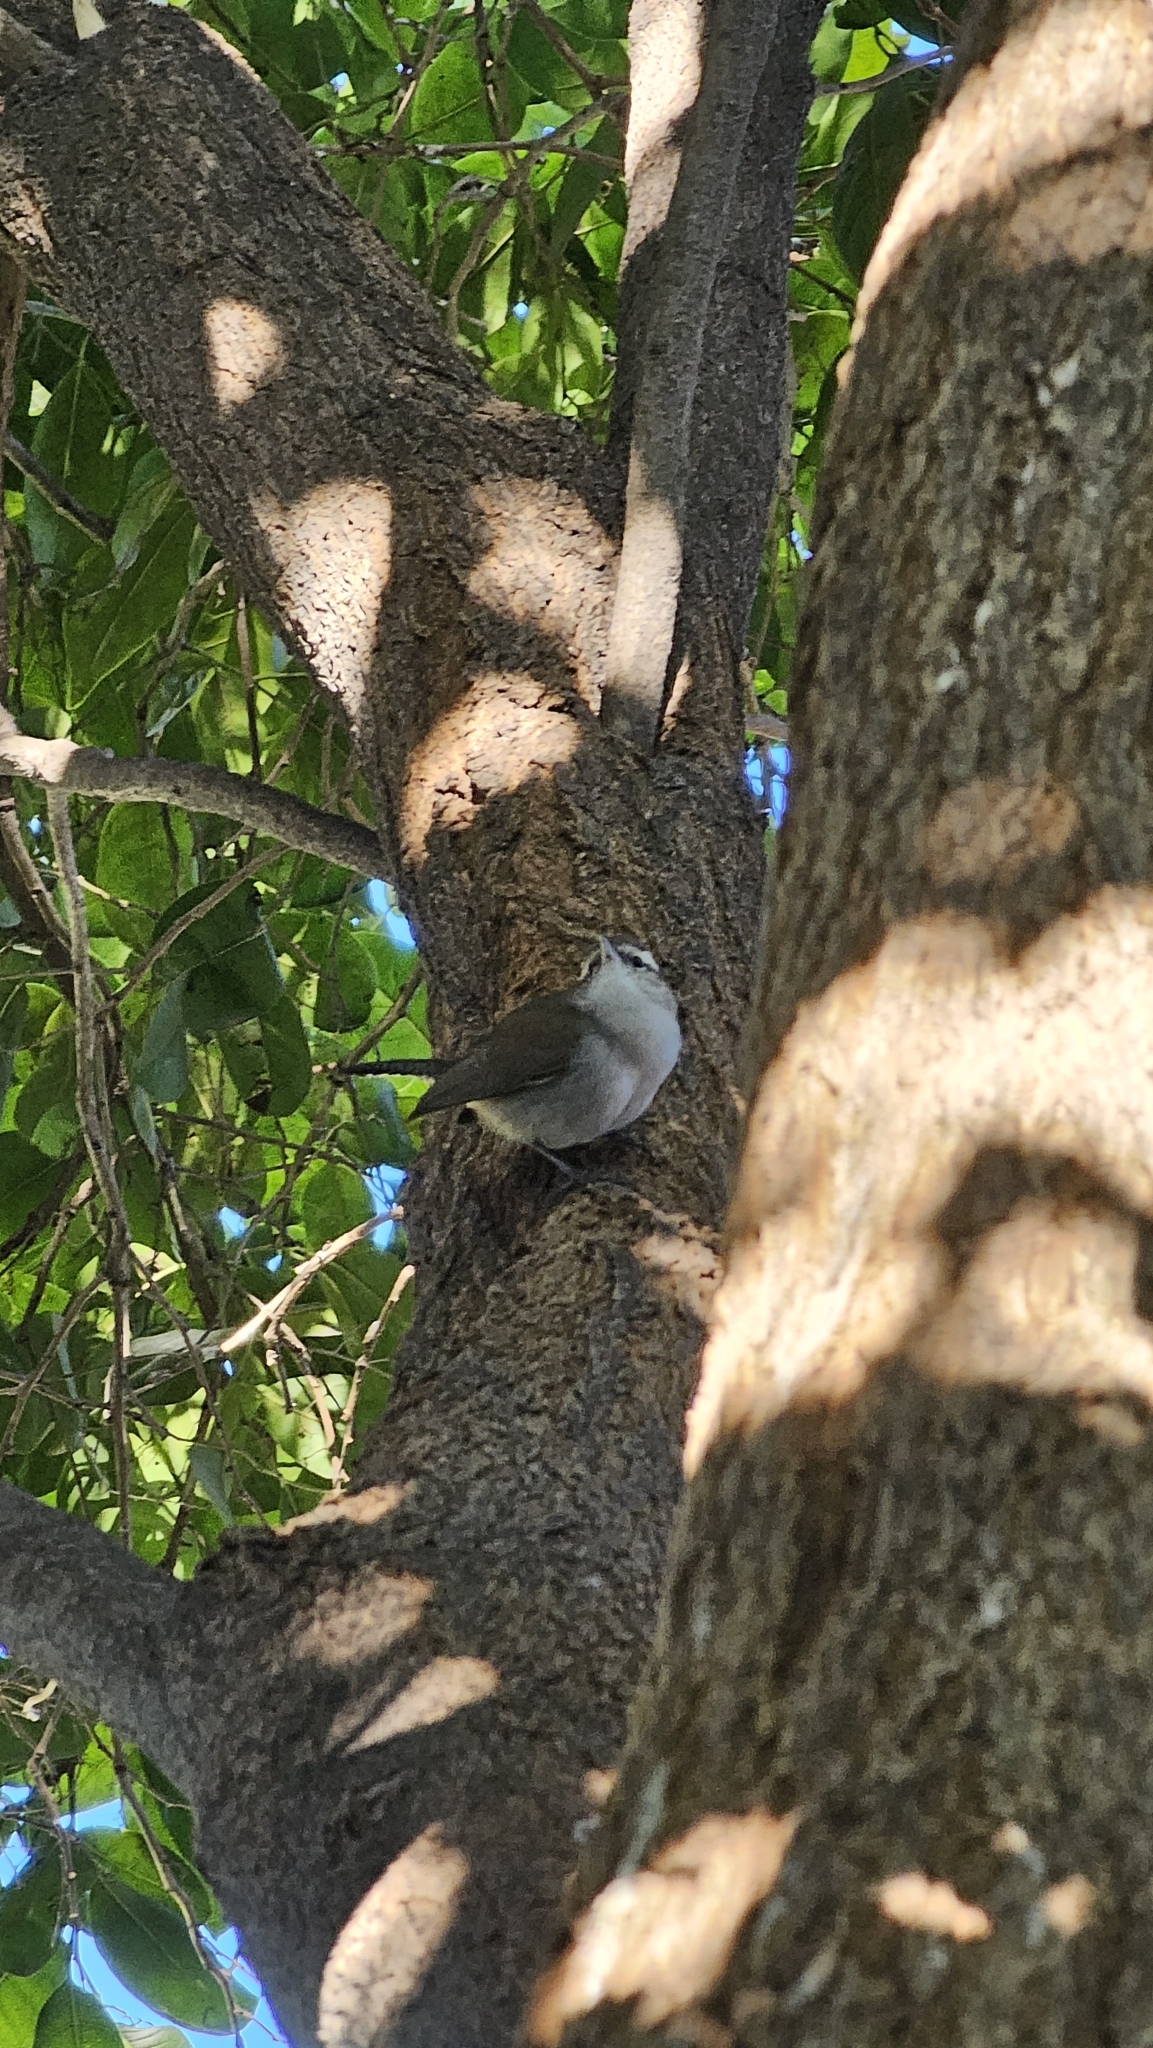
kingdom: Animalia
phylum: Chordata
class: Aves
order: Passeriformes
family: Troglodytidae
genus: Thryomanes
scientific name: Thryomanes bewickii
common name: Bewick's wren
